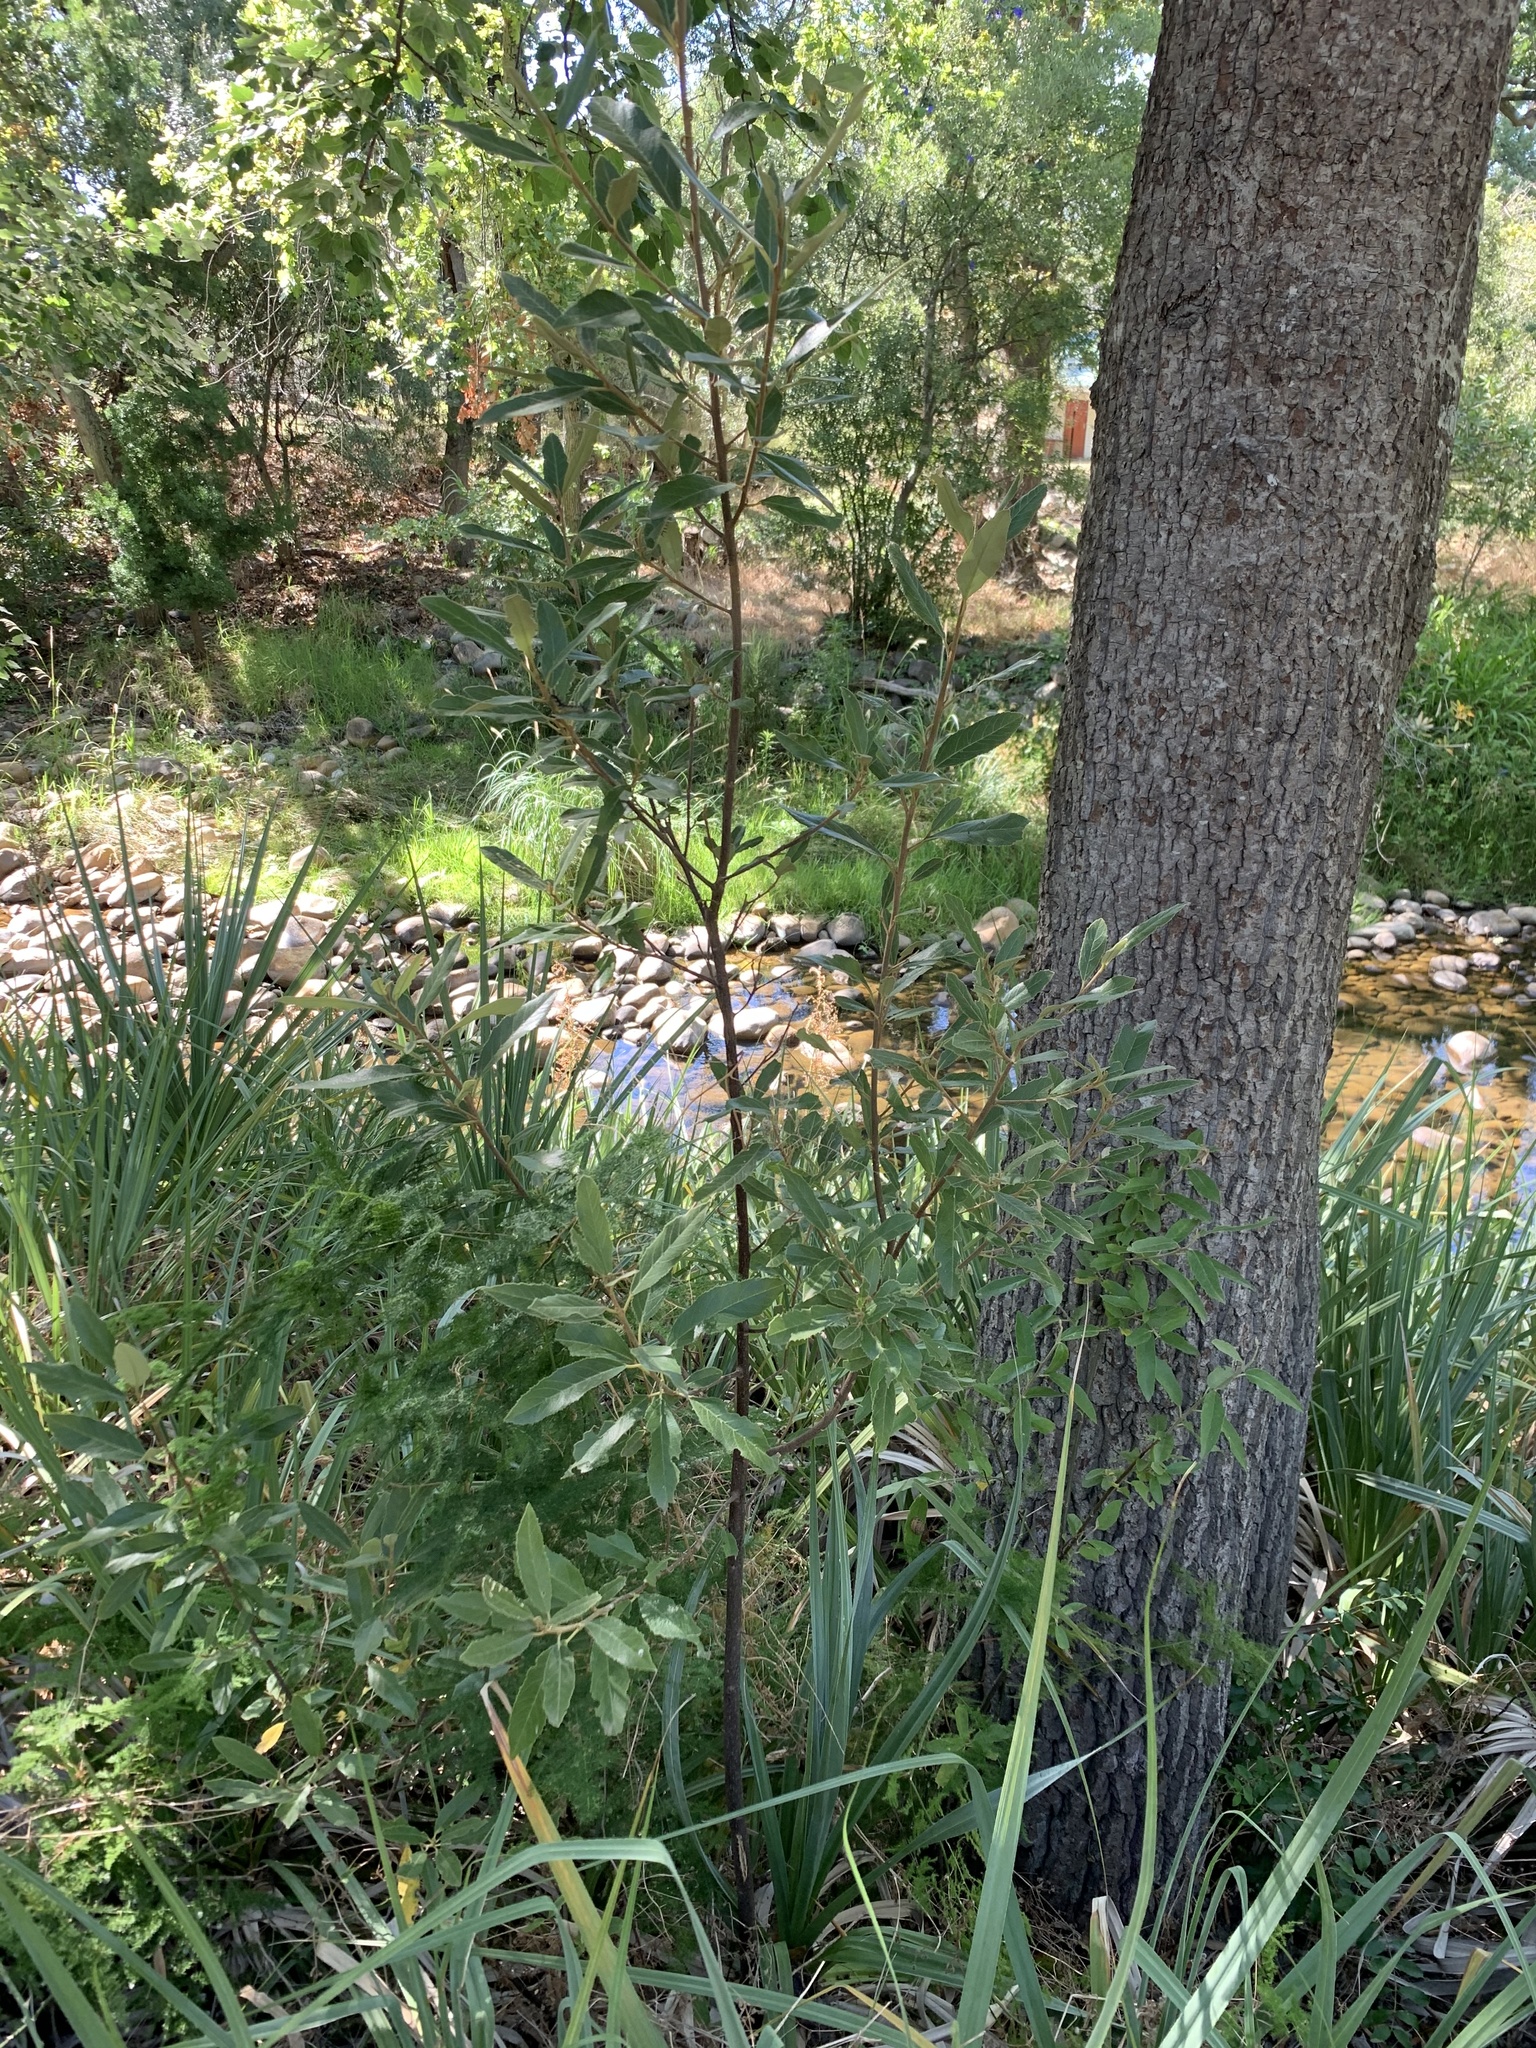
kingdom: Plantae
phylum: Tracheophyta
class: Magnoliopsida
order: Malpighiales
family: Achariaceae
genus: Kiggelaria
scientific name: Kiggelaria africana
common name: Wild peach
